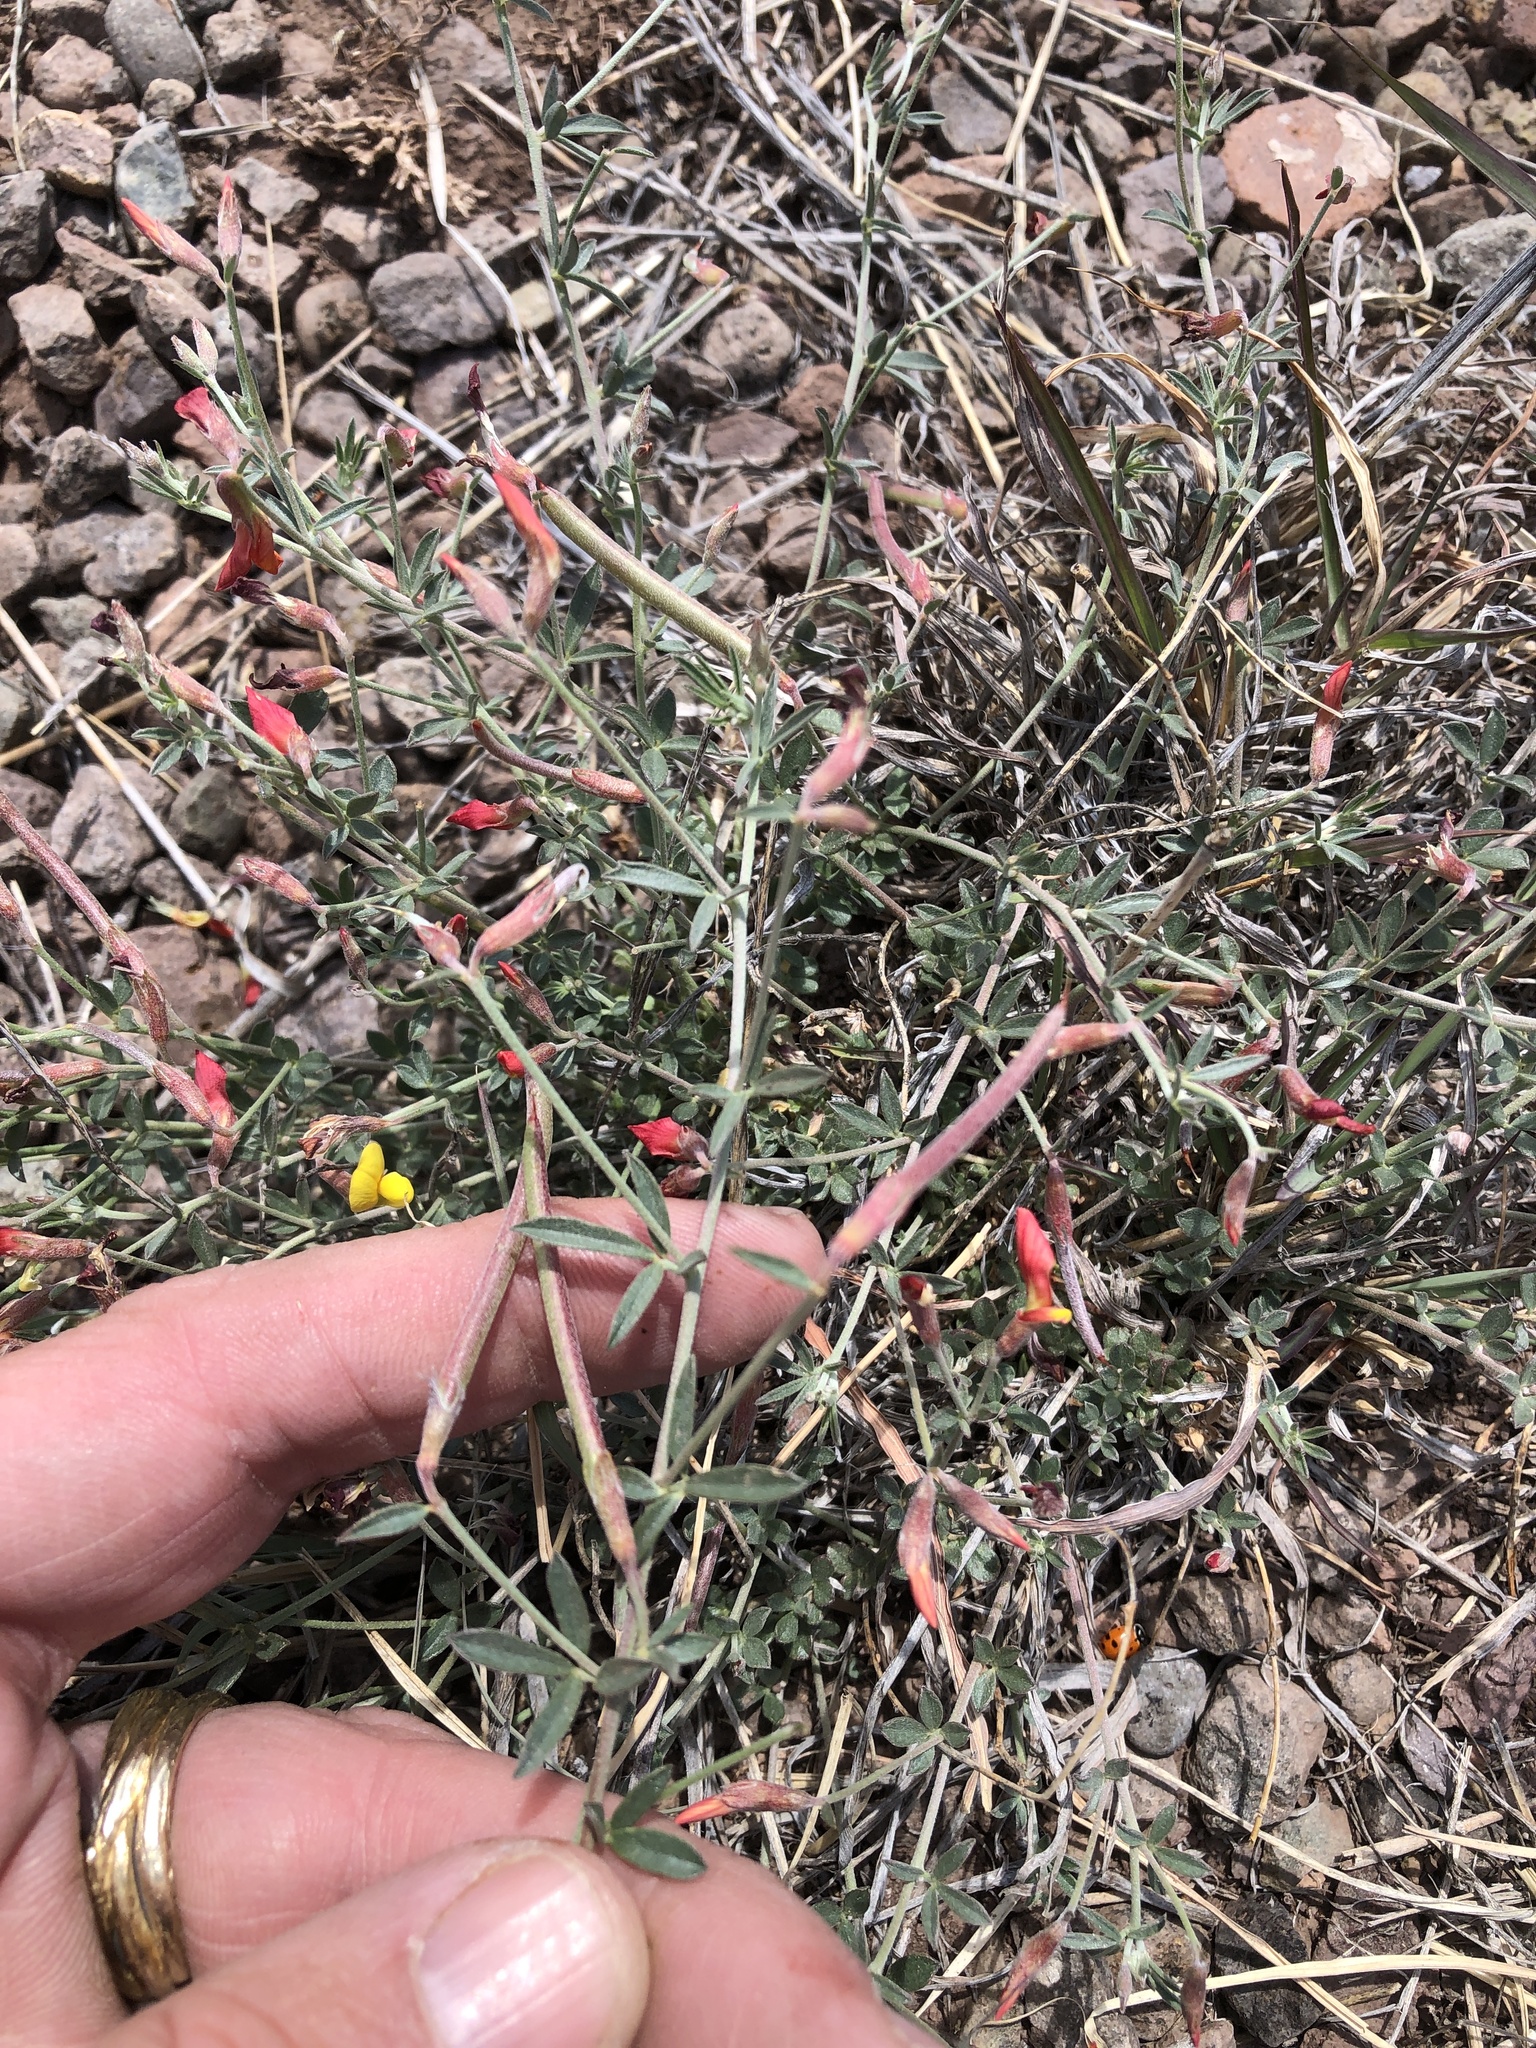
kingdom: Plantae
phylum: Tracheophyta
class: Magnoliopsida
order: Fabales
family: Fabaceae
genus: Acmispon
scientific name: Acmispon oroboides
